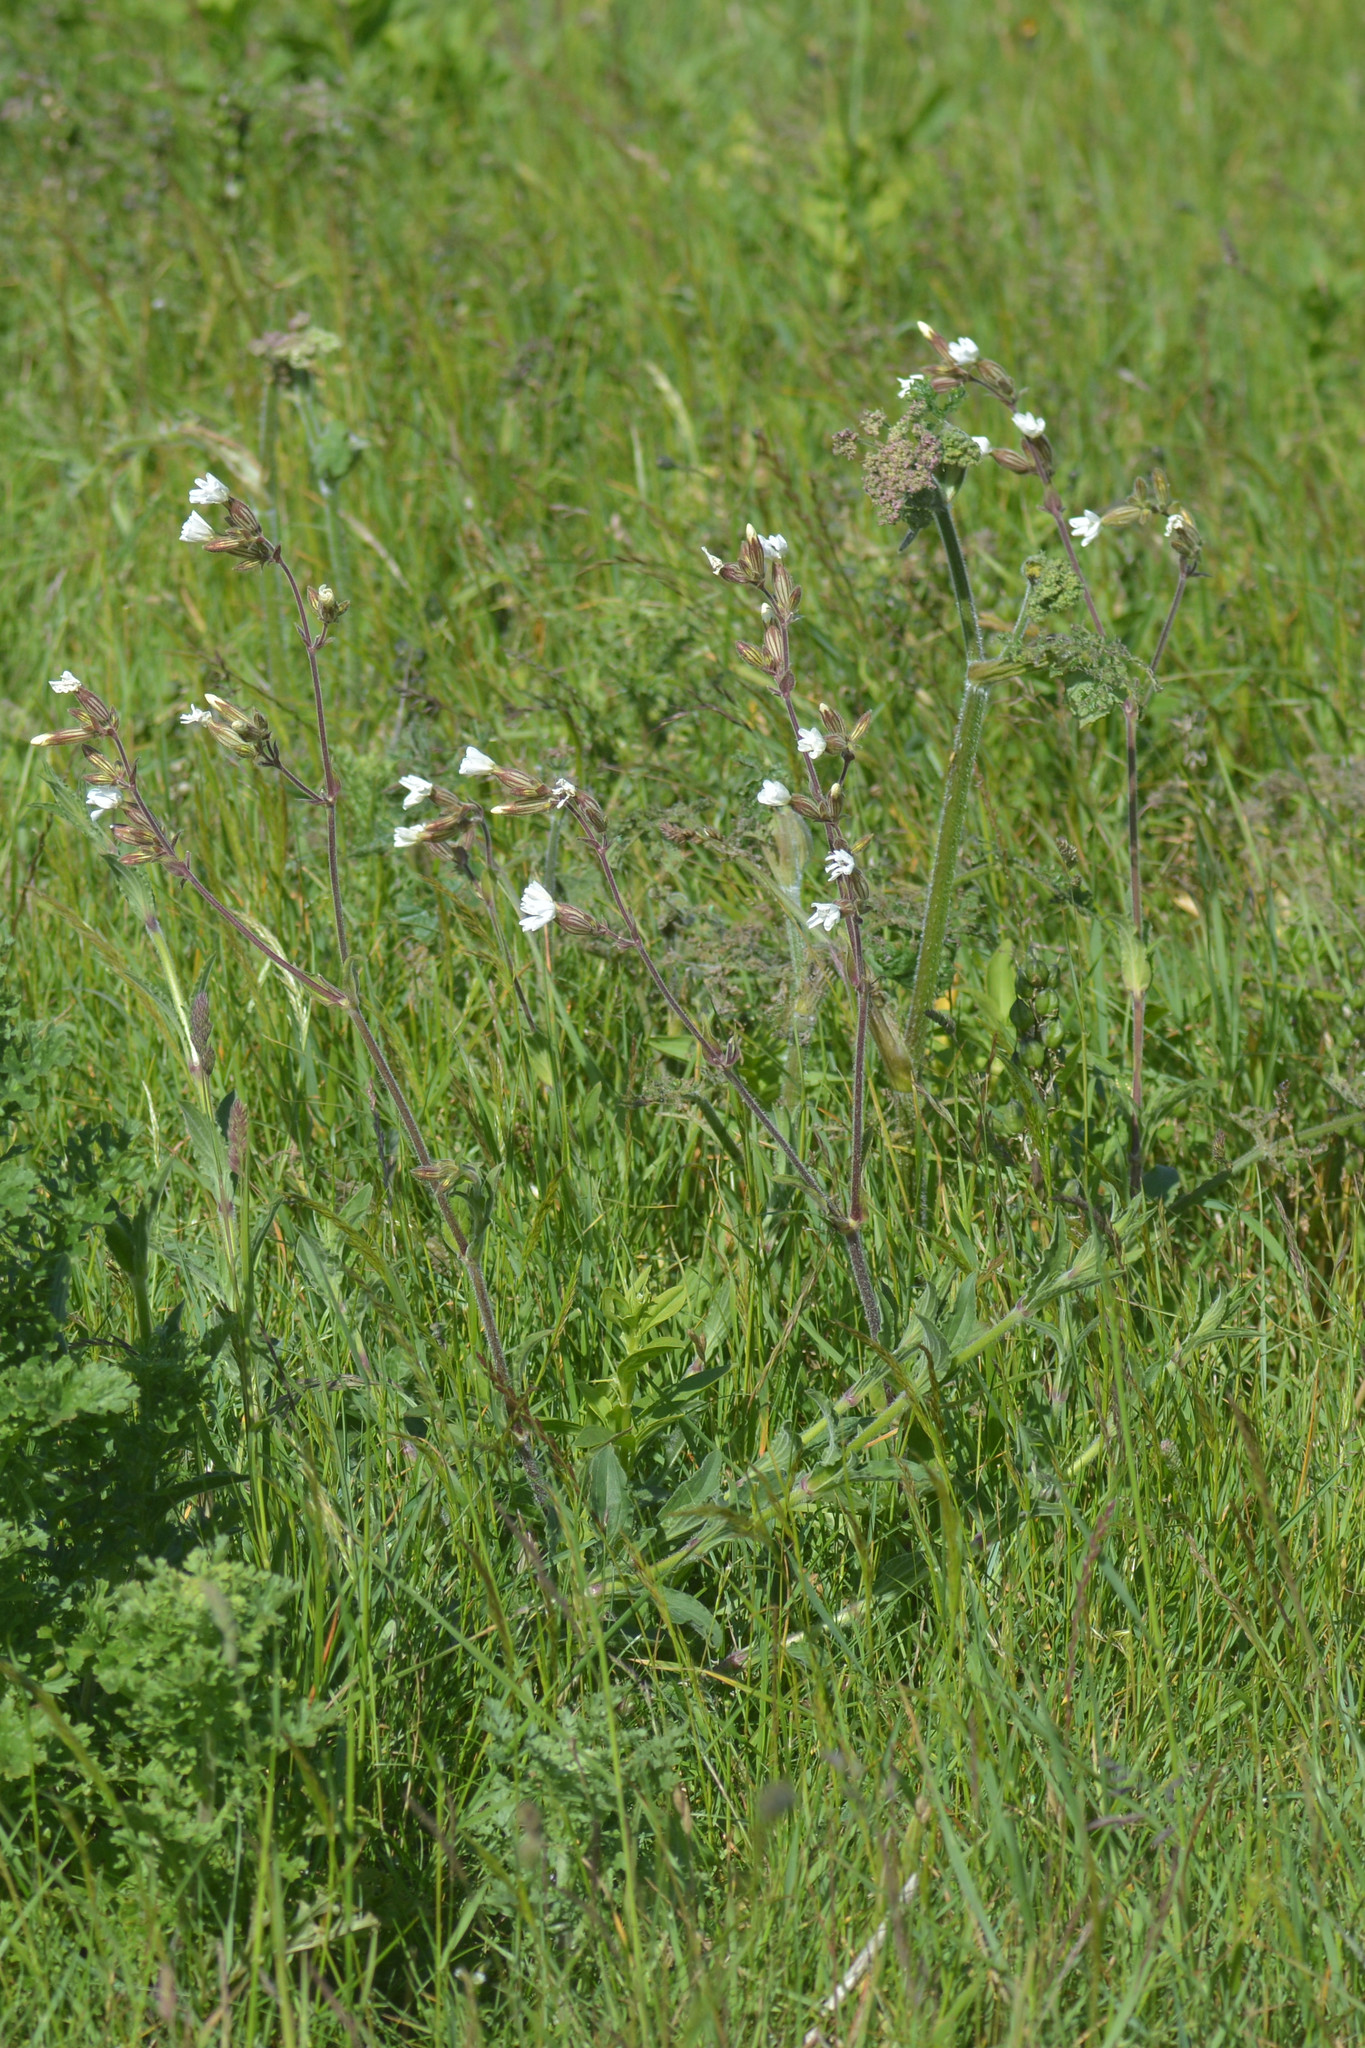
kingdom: Plantae
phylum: Tracheophyta
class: Magnoliopsida
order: Caryophyllales
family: Caryophyllaceae
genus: Silene
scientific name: Silene latifolia
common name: White campion
